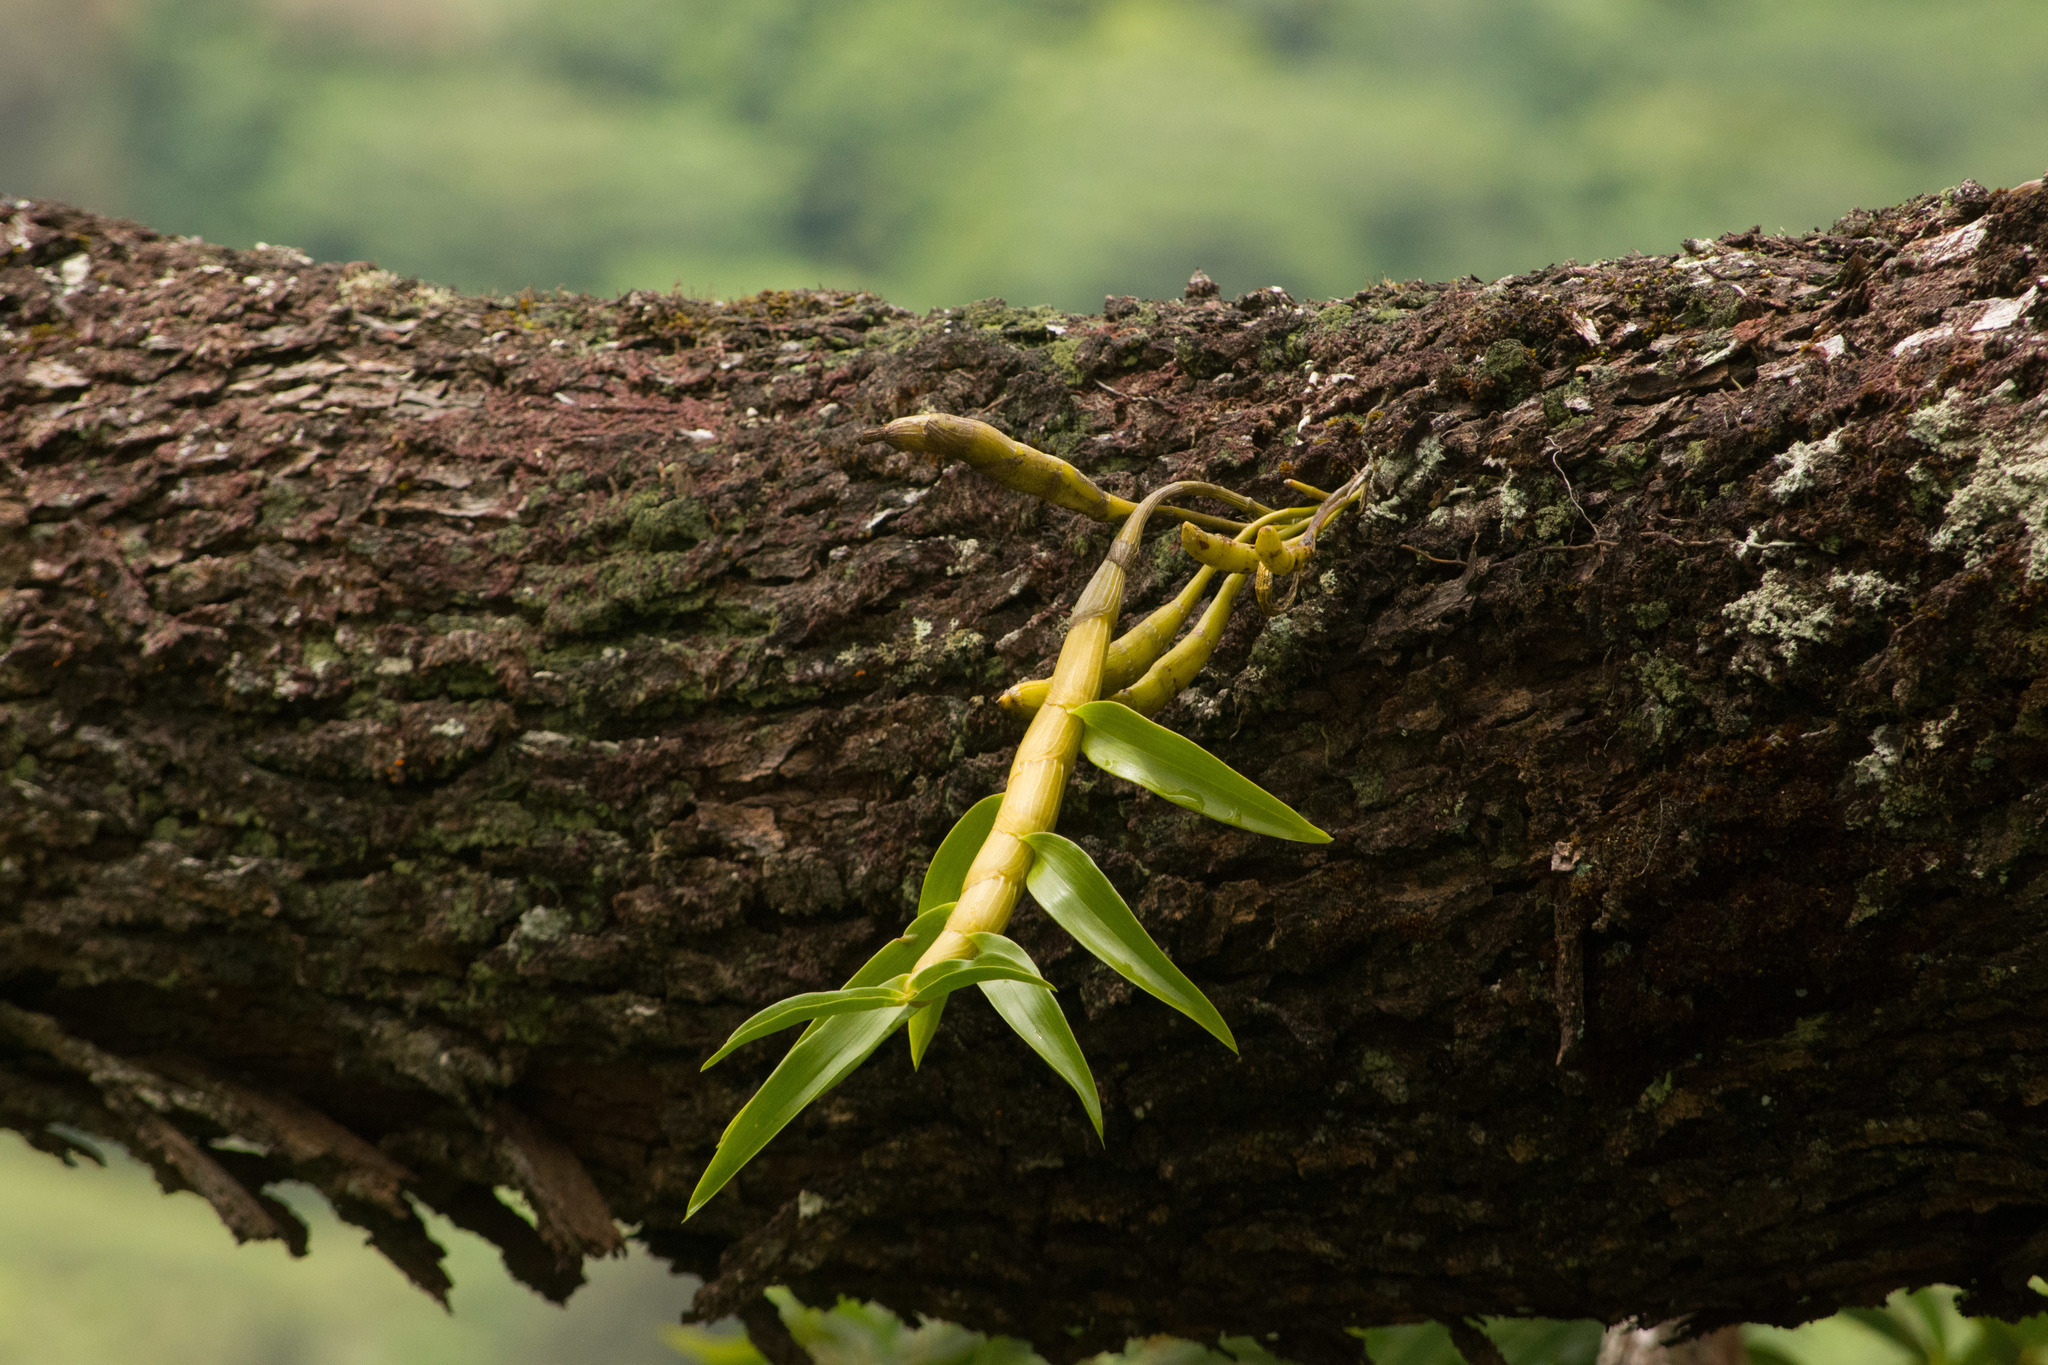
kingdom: Plantae
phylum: Tracheophyta
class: Liliopsida
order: Asparagales
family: Orchidaceae
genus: Dendrobium
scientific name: Dendrobium rhombeum
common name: Orchid
